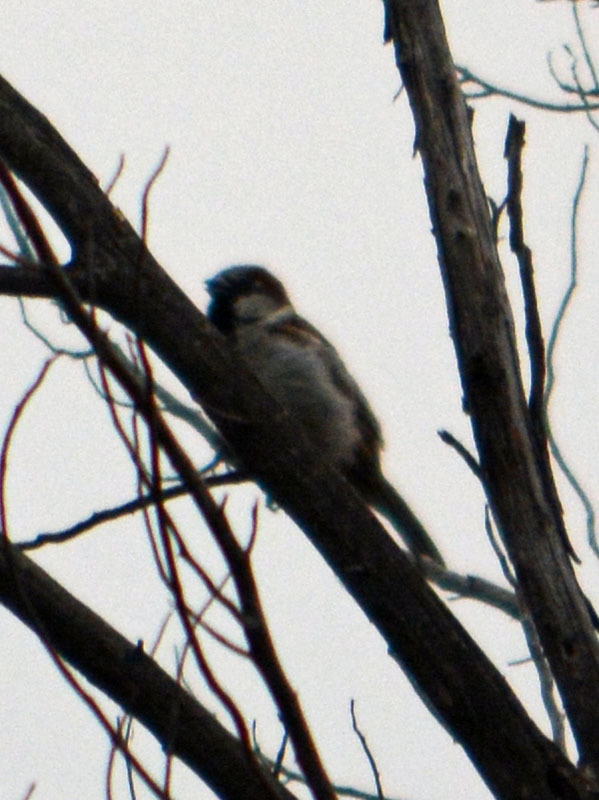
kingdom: Animalia
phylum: Chordata
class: Aves
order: Passeriformes
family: Passeridae
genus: Passer
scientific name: Passer domesticus
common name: House sparrow
